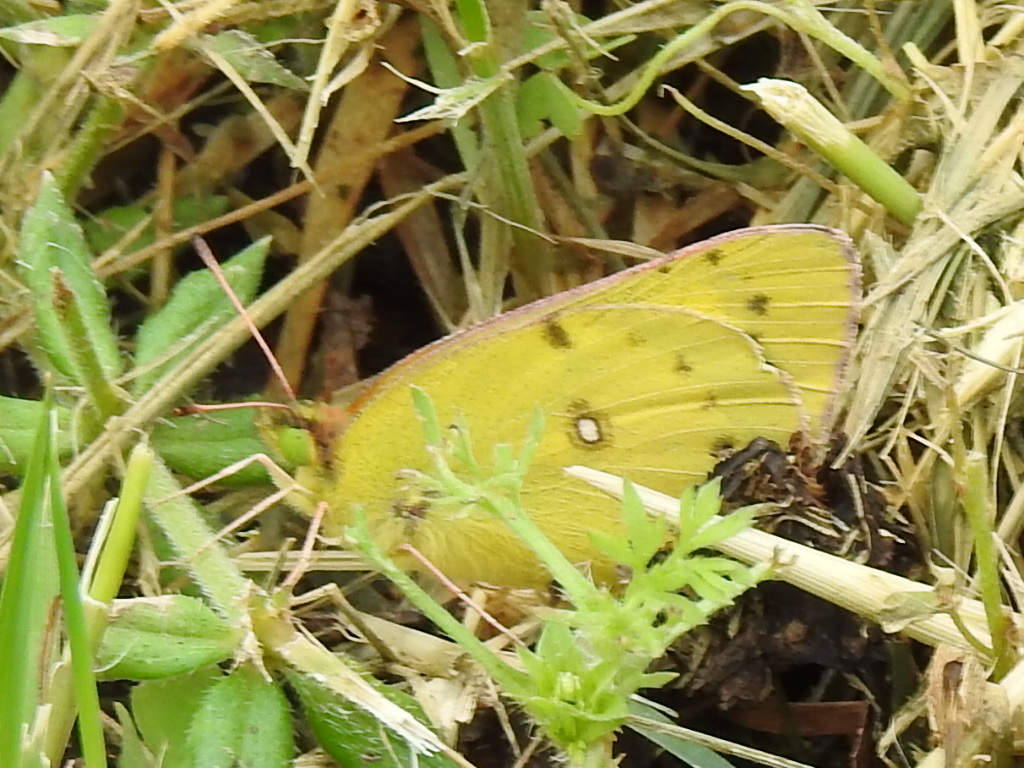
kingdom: Animalia
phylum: Arthropoda
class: Insecta
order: Lepidoptera
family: Pieridae
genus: Colias
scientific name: Colias eurytheme
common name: Alfalfa butterfly
